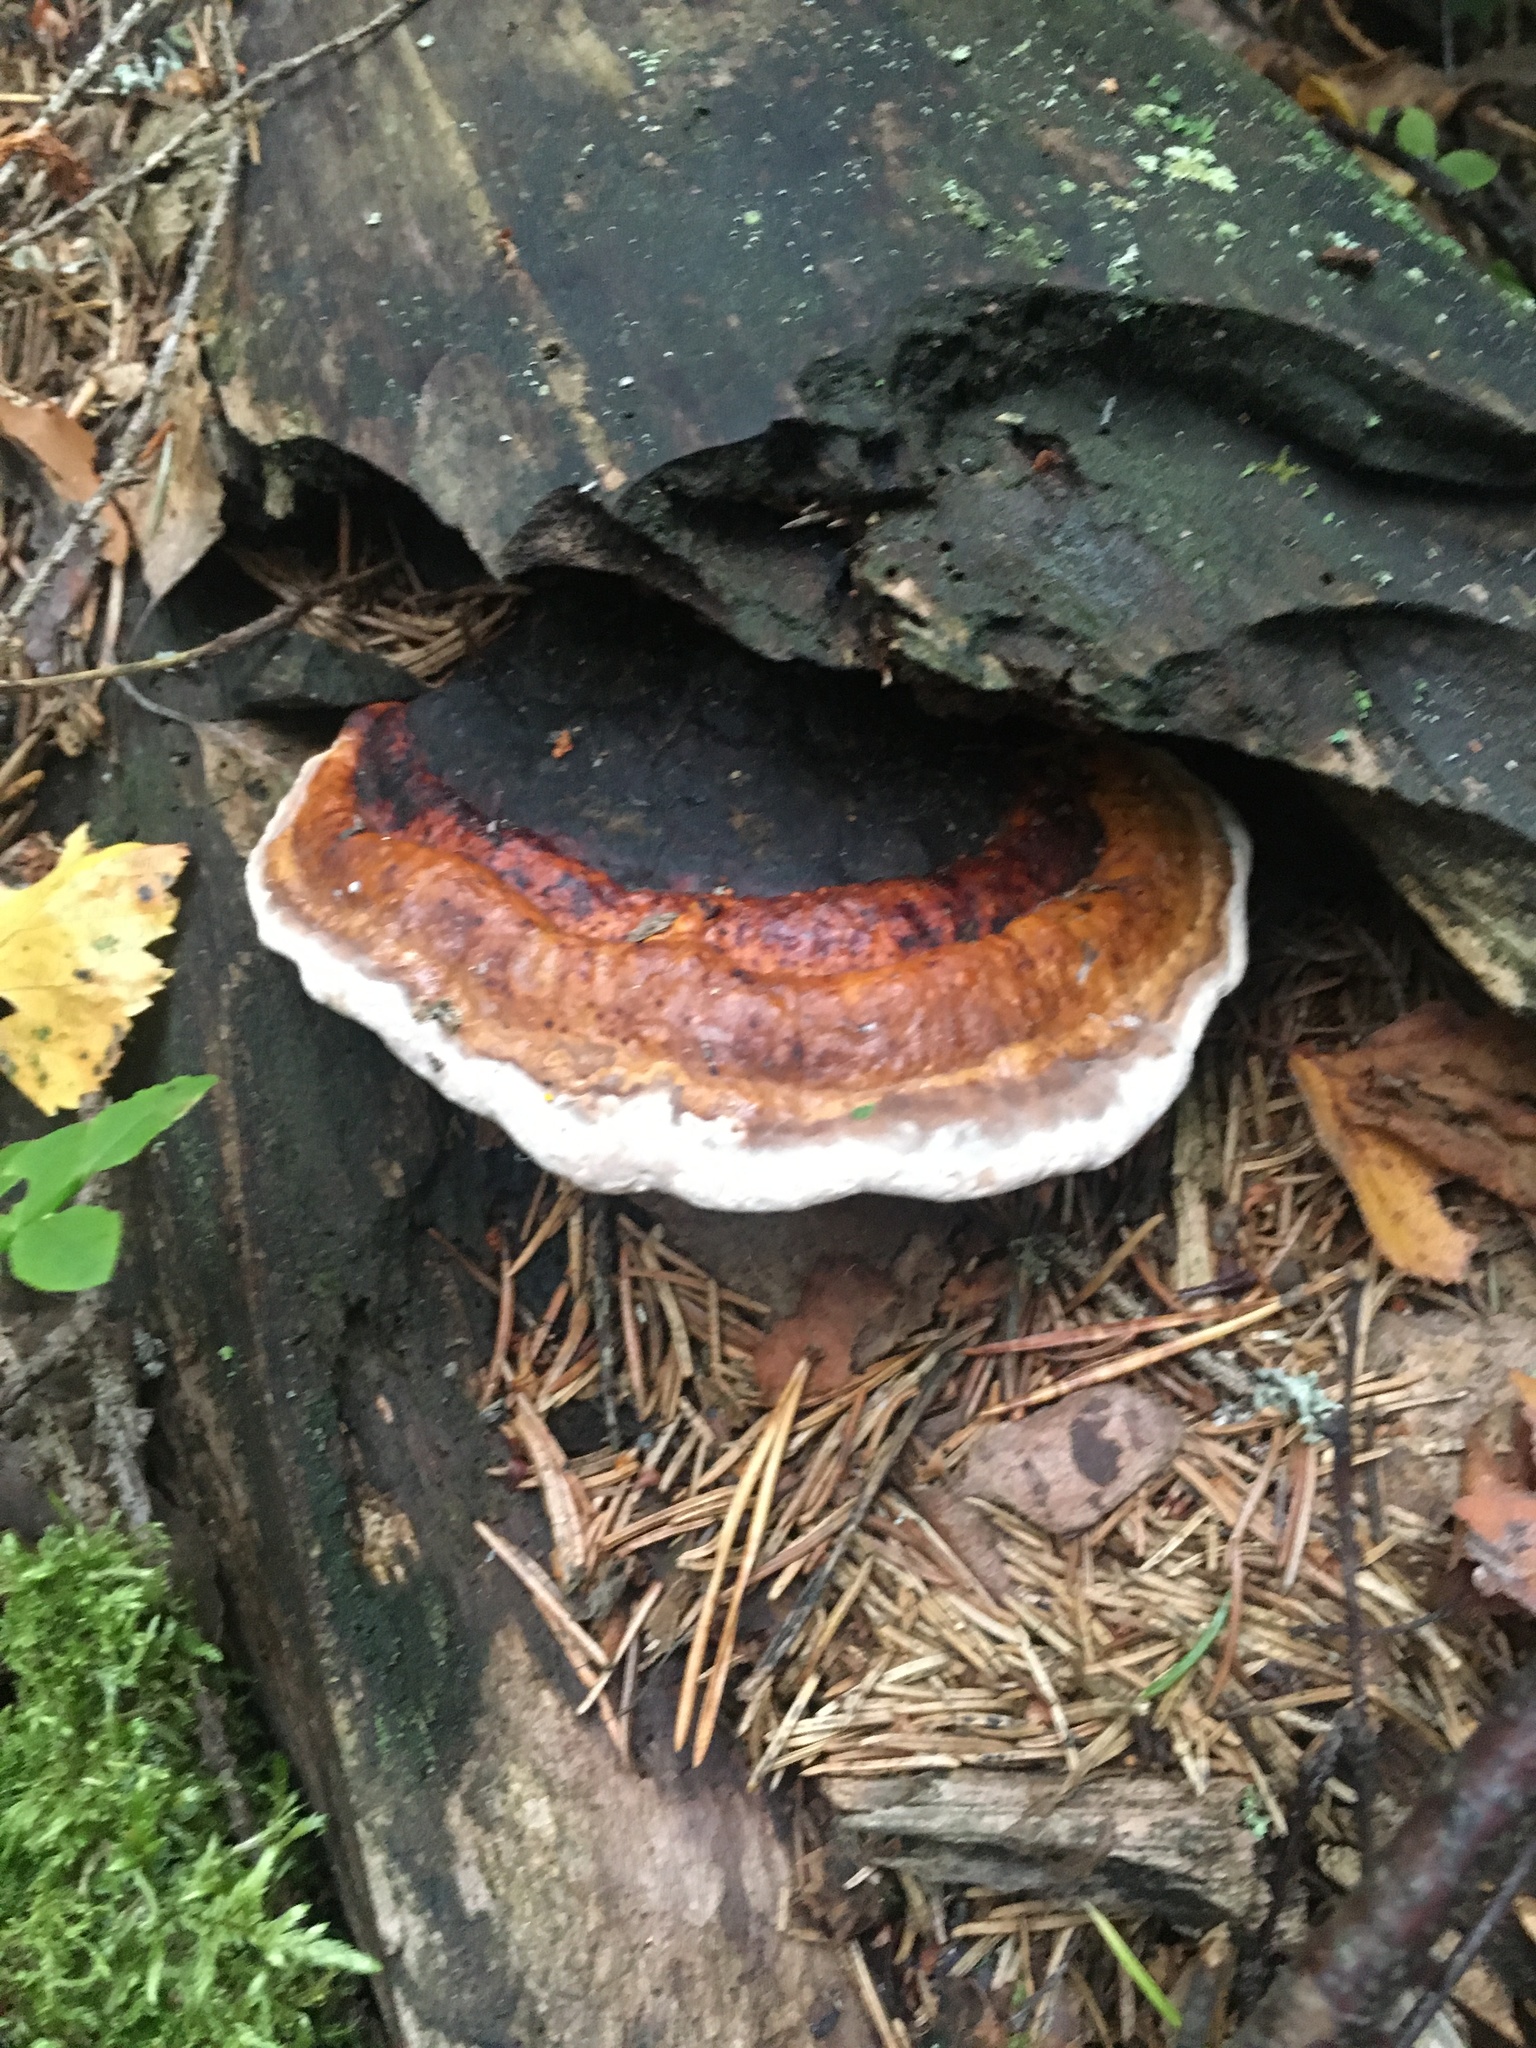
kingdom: Fungi
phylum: Basidiomycota
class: Agaricomycetes
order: Polyporales
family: Fomitopsidaceae
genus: Fomitopsis
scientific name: Fomitopsis pinicola
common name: Red-belted bracket
